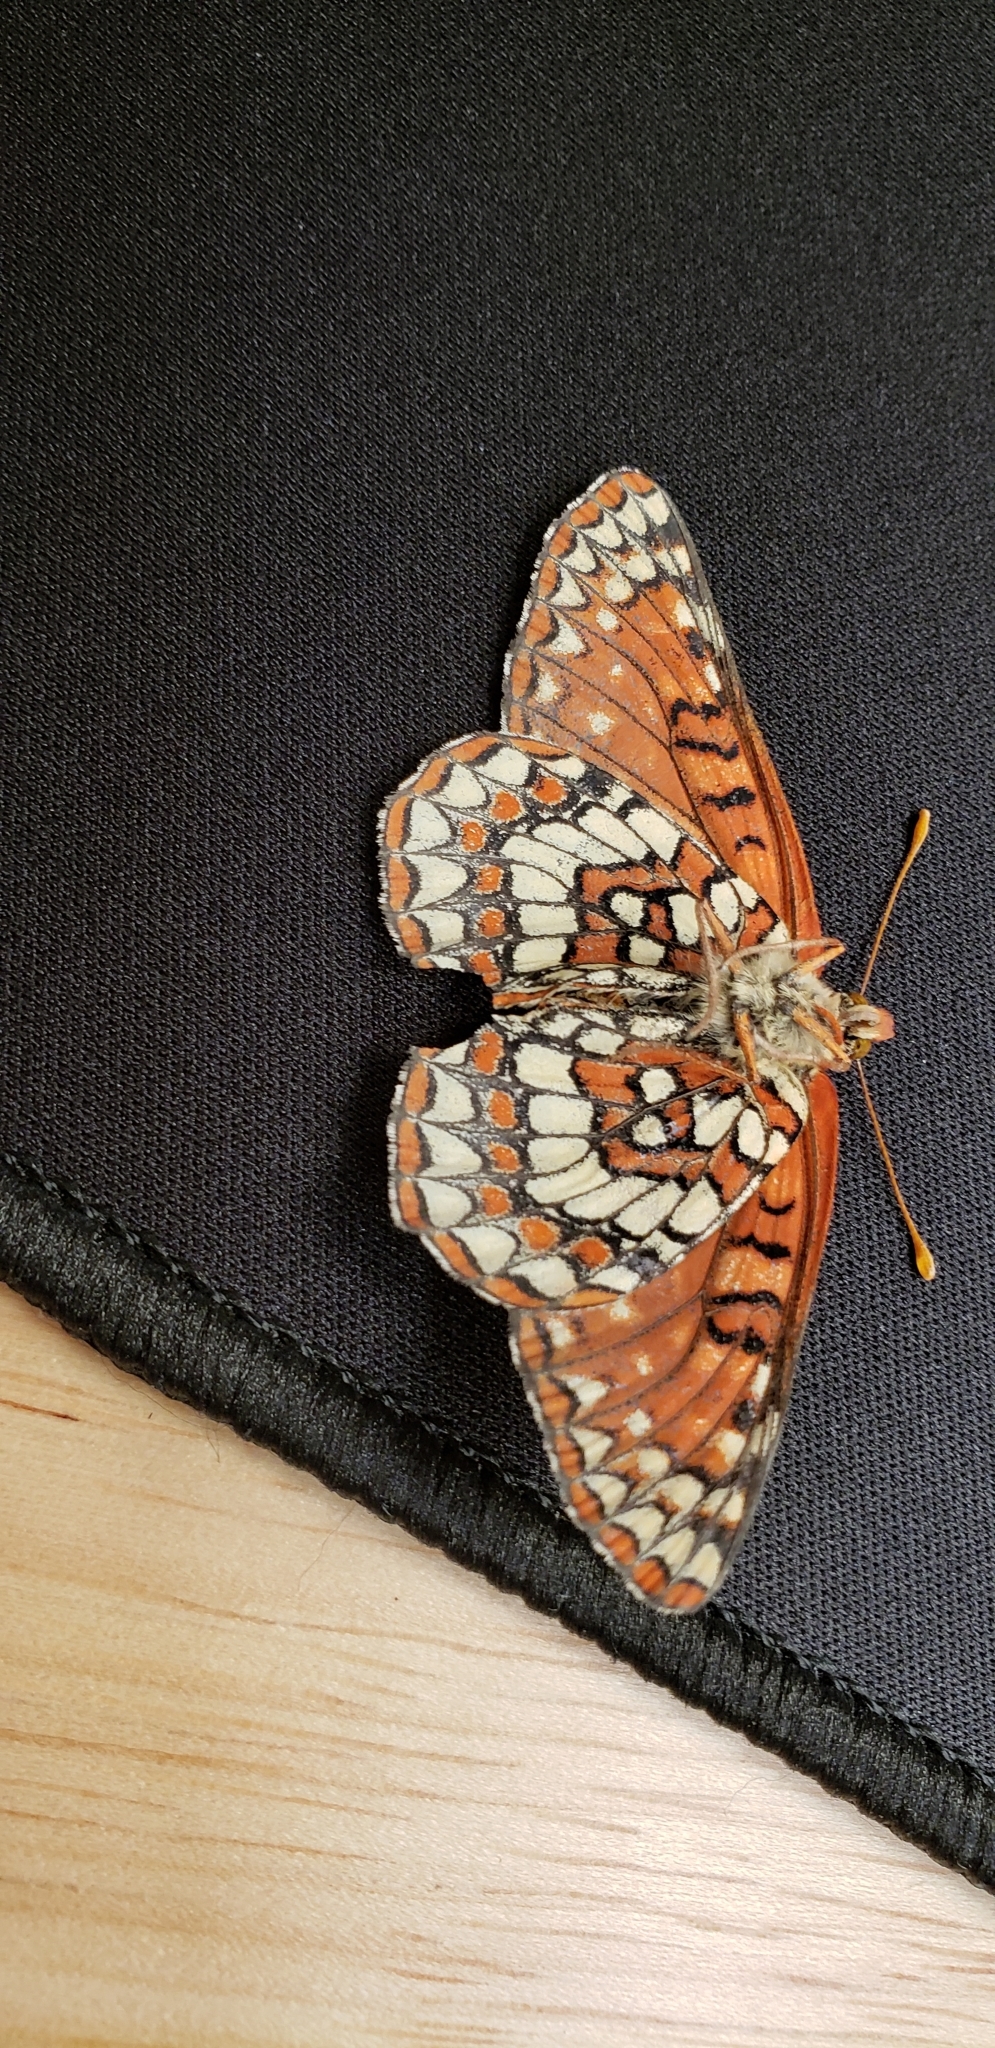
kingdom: Animalia
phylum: Arthropoda
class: Insecta
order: Lepidoptera
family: Nymphalidae
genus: Occidryas
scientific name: Occidryas chalcedona
